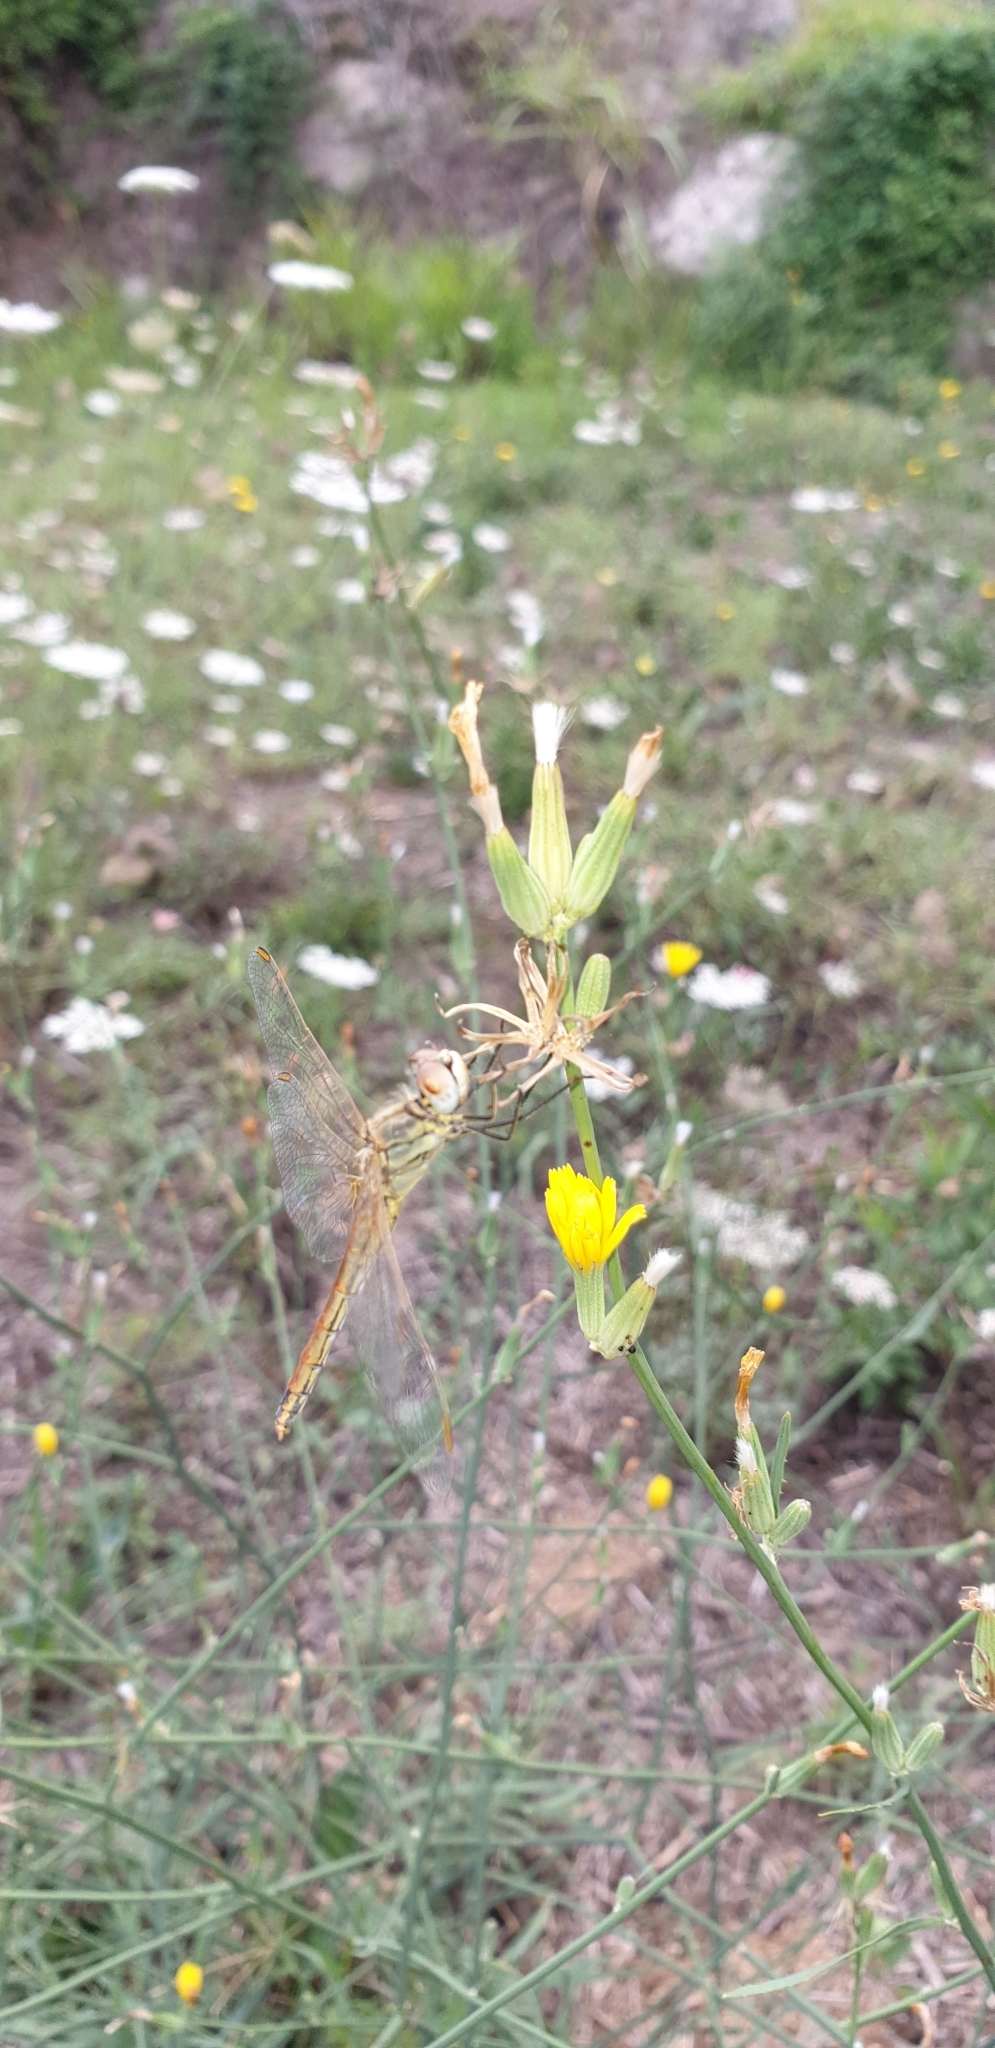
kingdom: Animalia
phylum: Arthropoda
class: Insecta
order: Odonata
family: Libellulidae
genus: Sympetrum
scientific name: Sympetrum fonscolombii
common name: Red-veined darter
